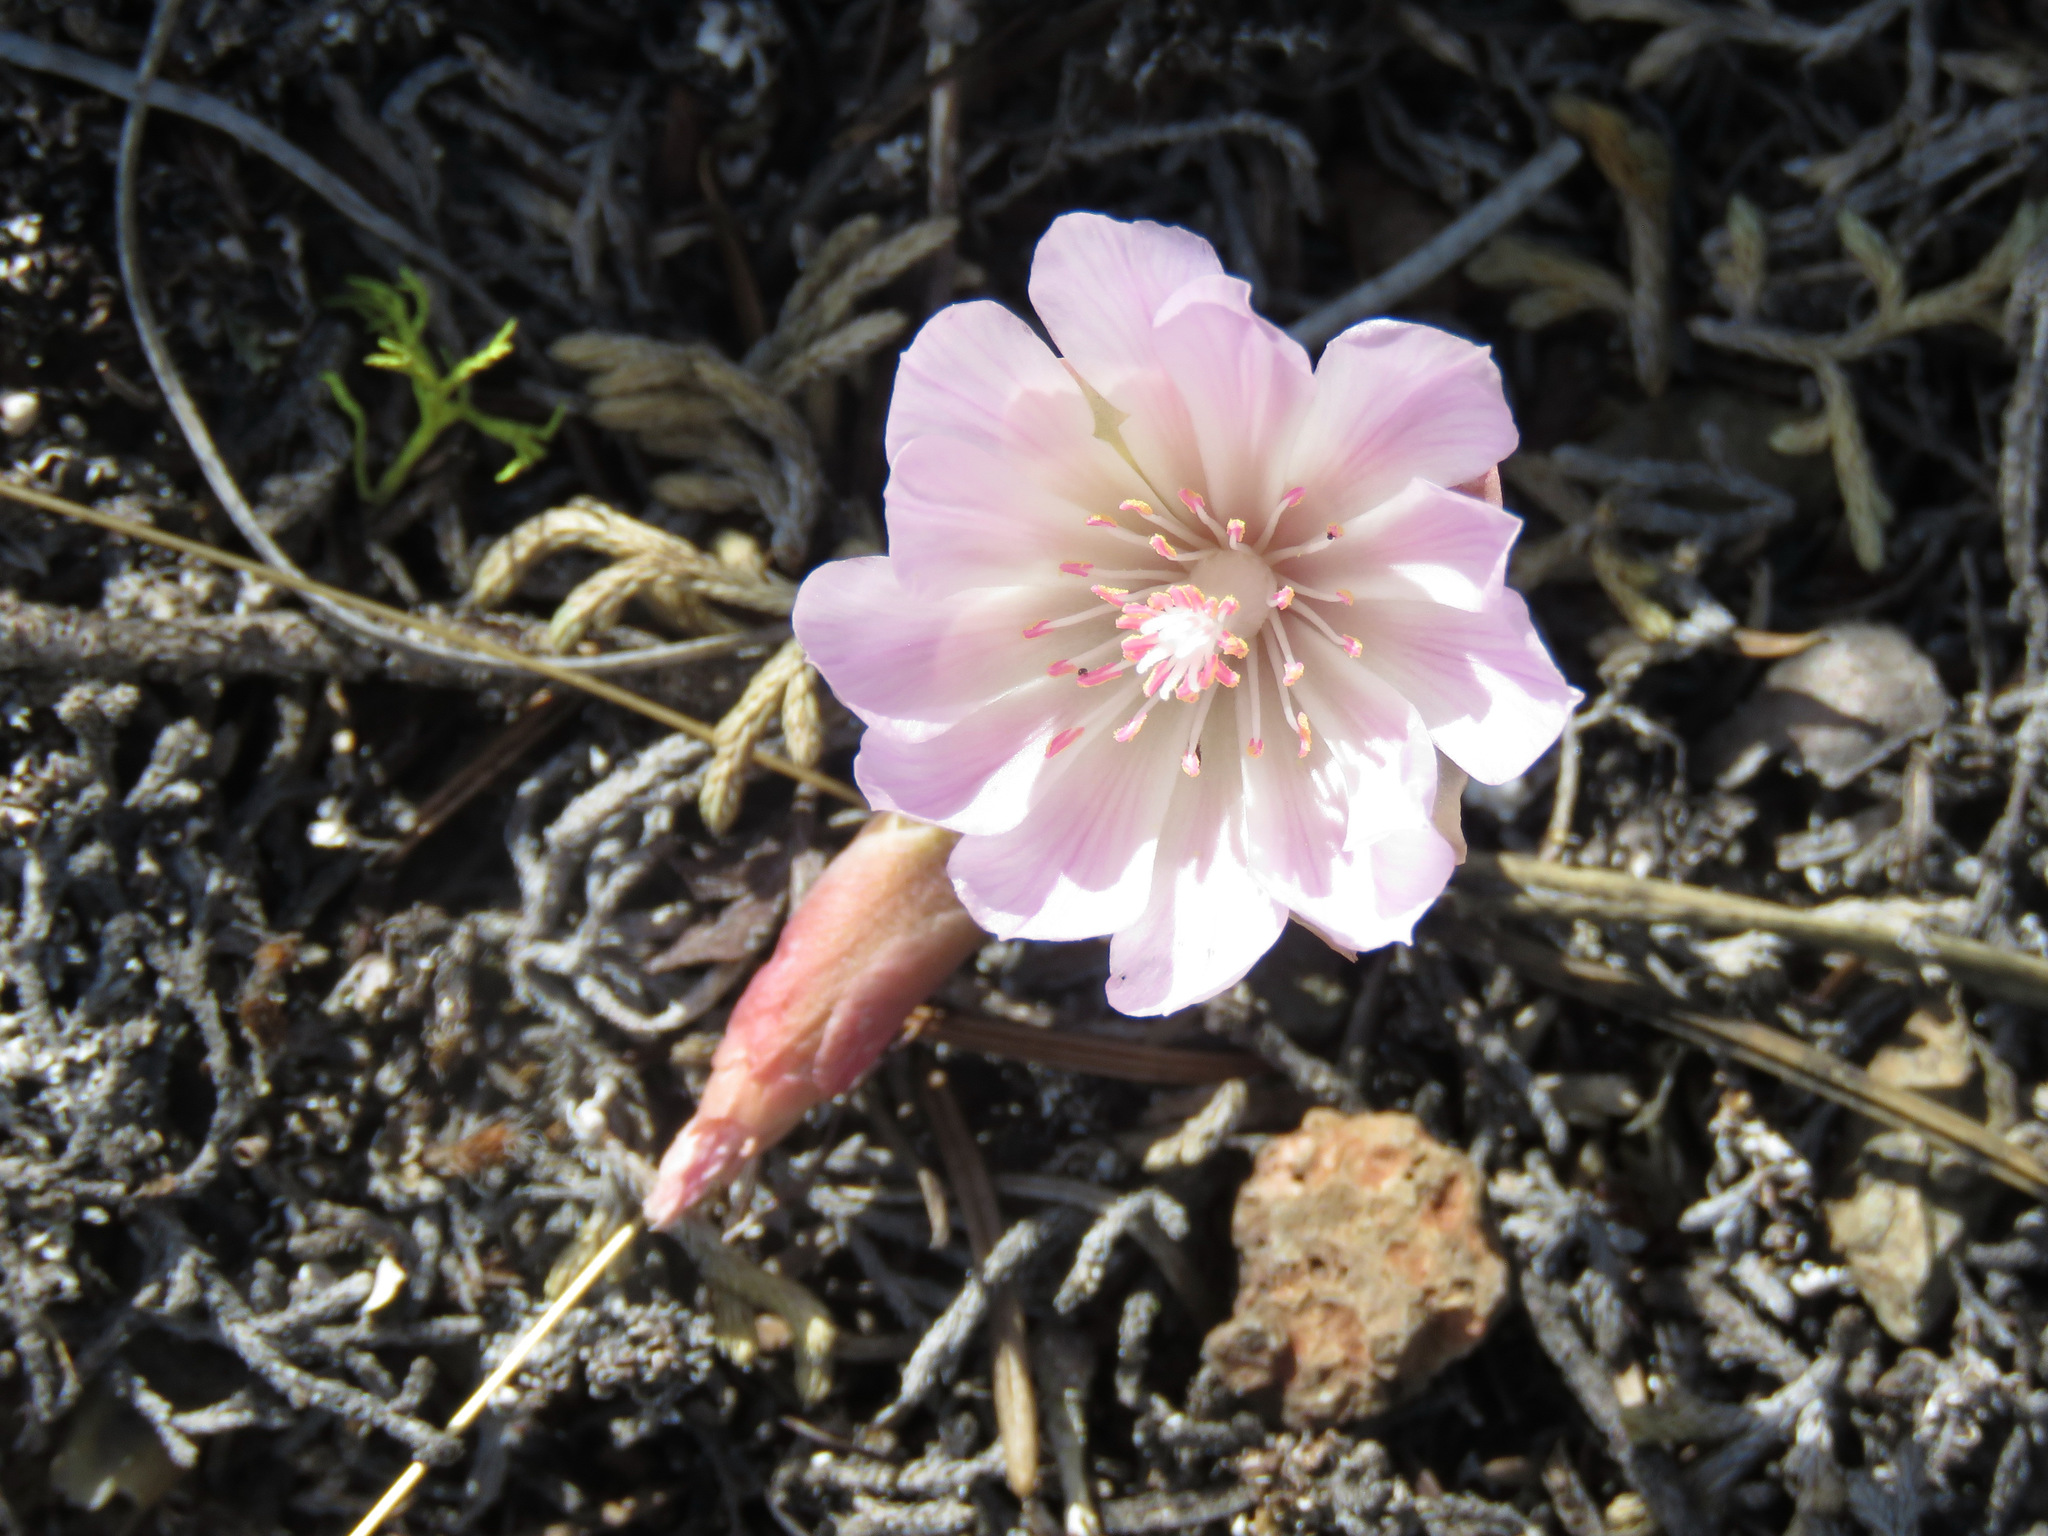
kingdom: Plantae
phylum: Tracheophyta
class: Magnoliopsida
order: Caryophyllales
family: Montiaceae
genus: Lewisia
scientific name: Lewisia rediviva
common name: Bitter-root
